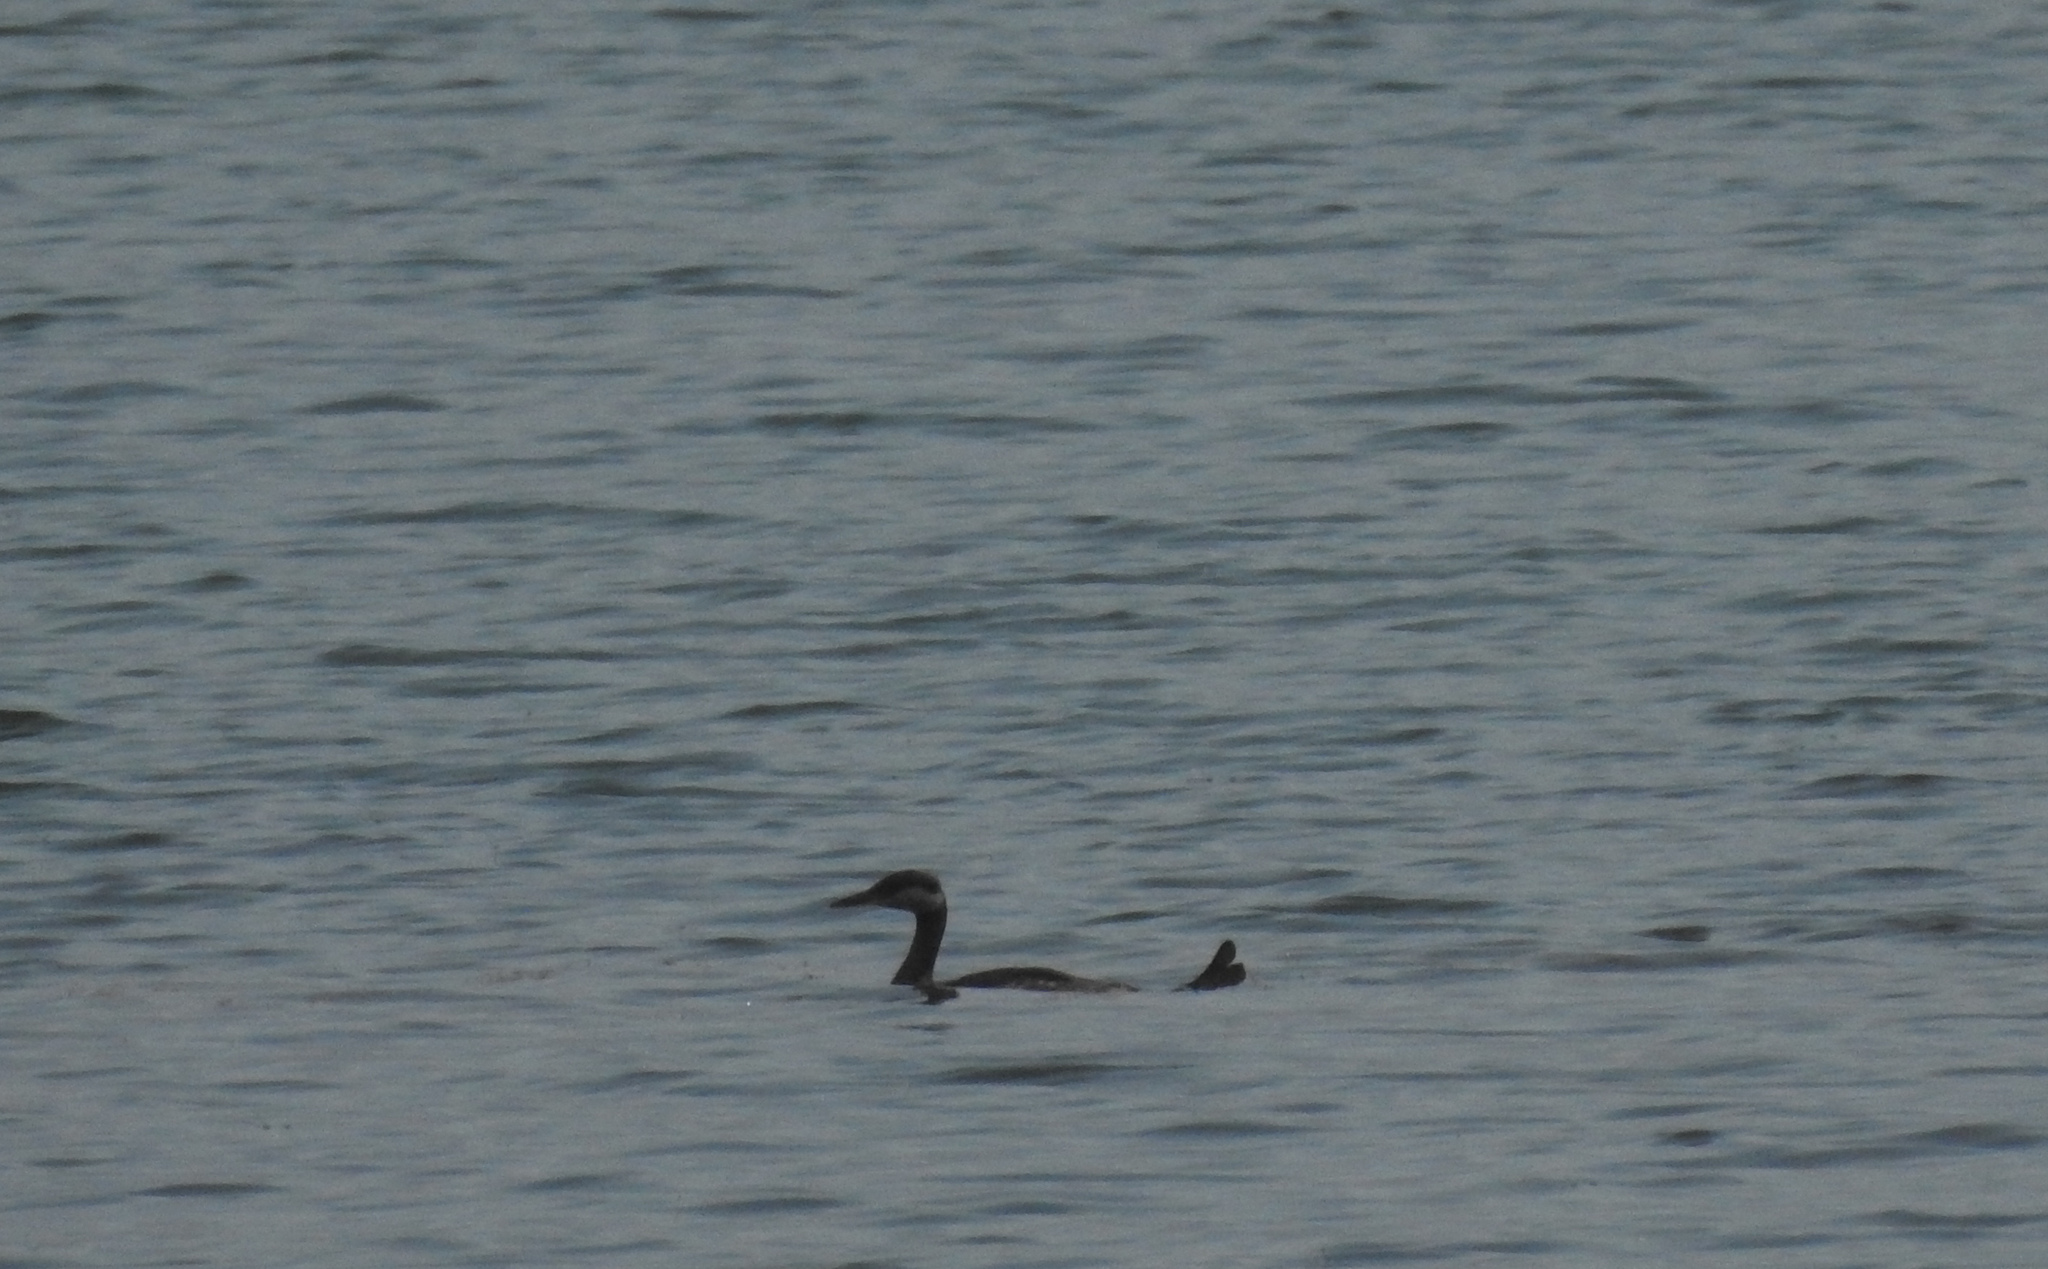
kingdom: Animalia
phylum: Chordata
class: Aves
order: Podicipediformes
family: Podicipedidae
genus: Podiceps
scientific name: Podiceps grisegena
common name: Red-necked grebe
